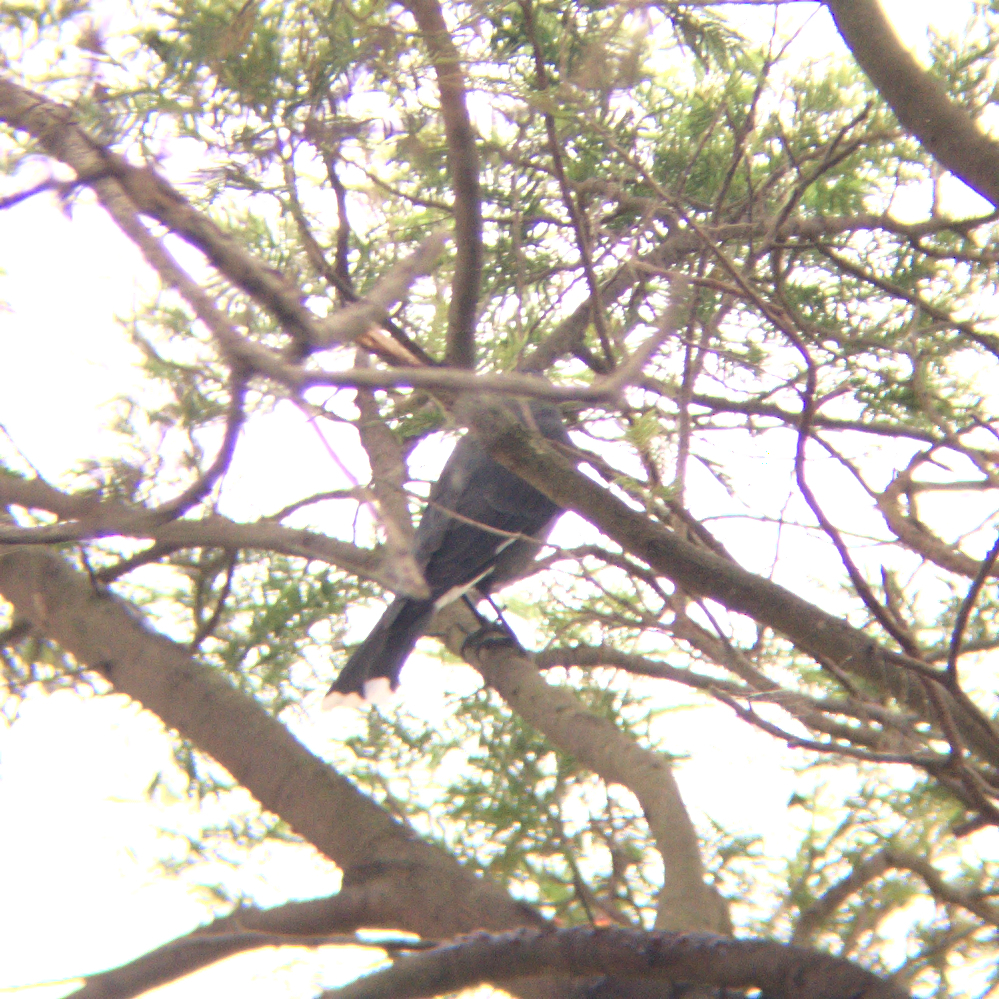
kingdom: Animalia
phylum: Chordata
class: Aves
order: Passeriformes
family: Cracticidae
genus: Strepera
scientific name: Strepera graculina
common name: Pied currawong
